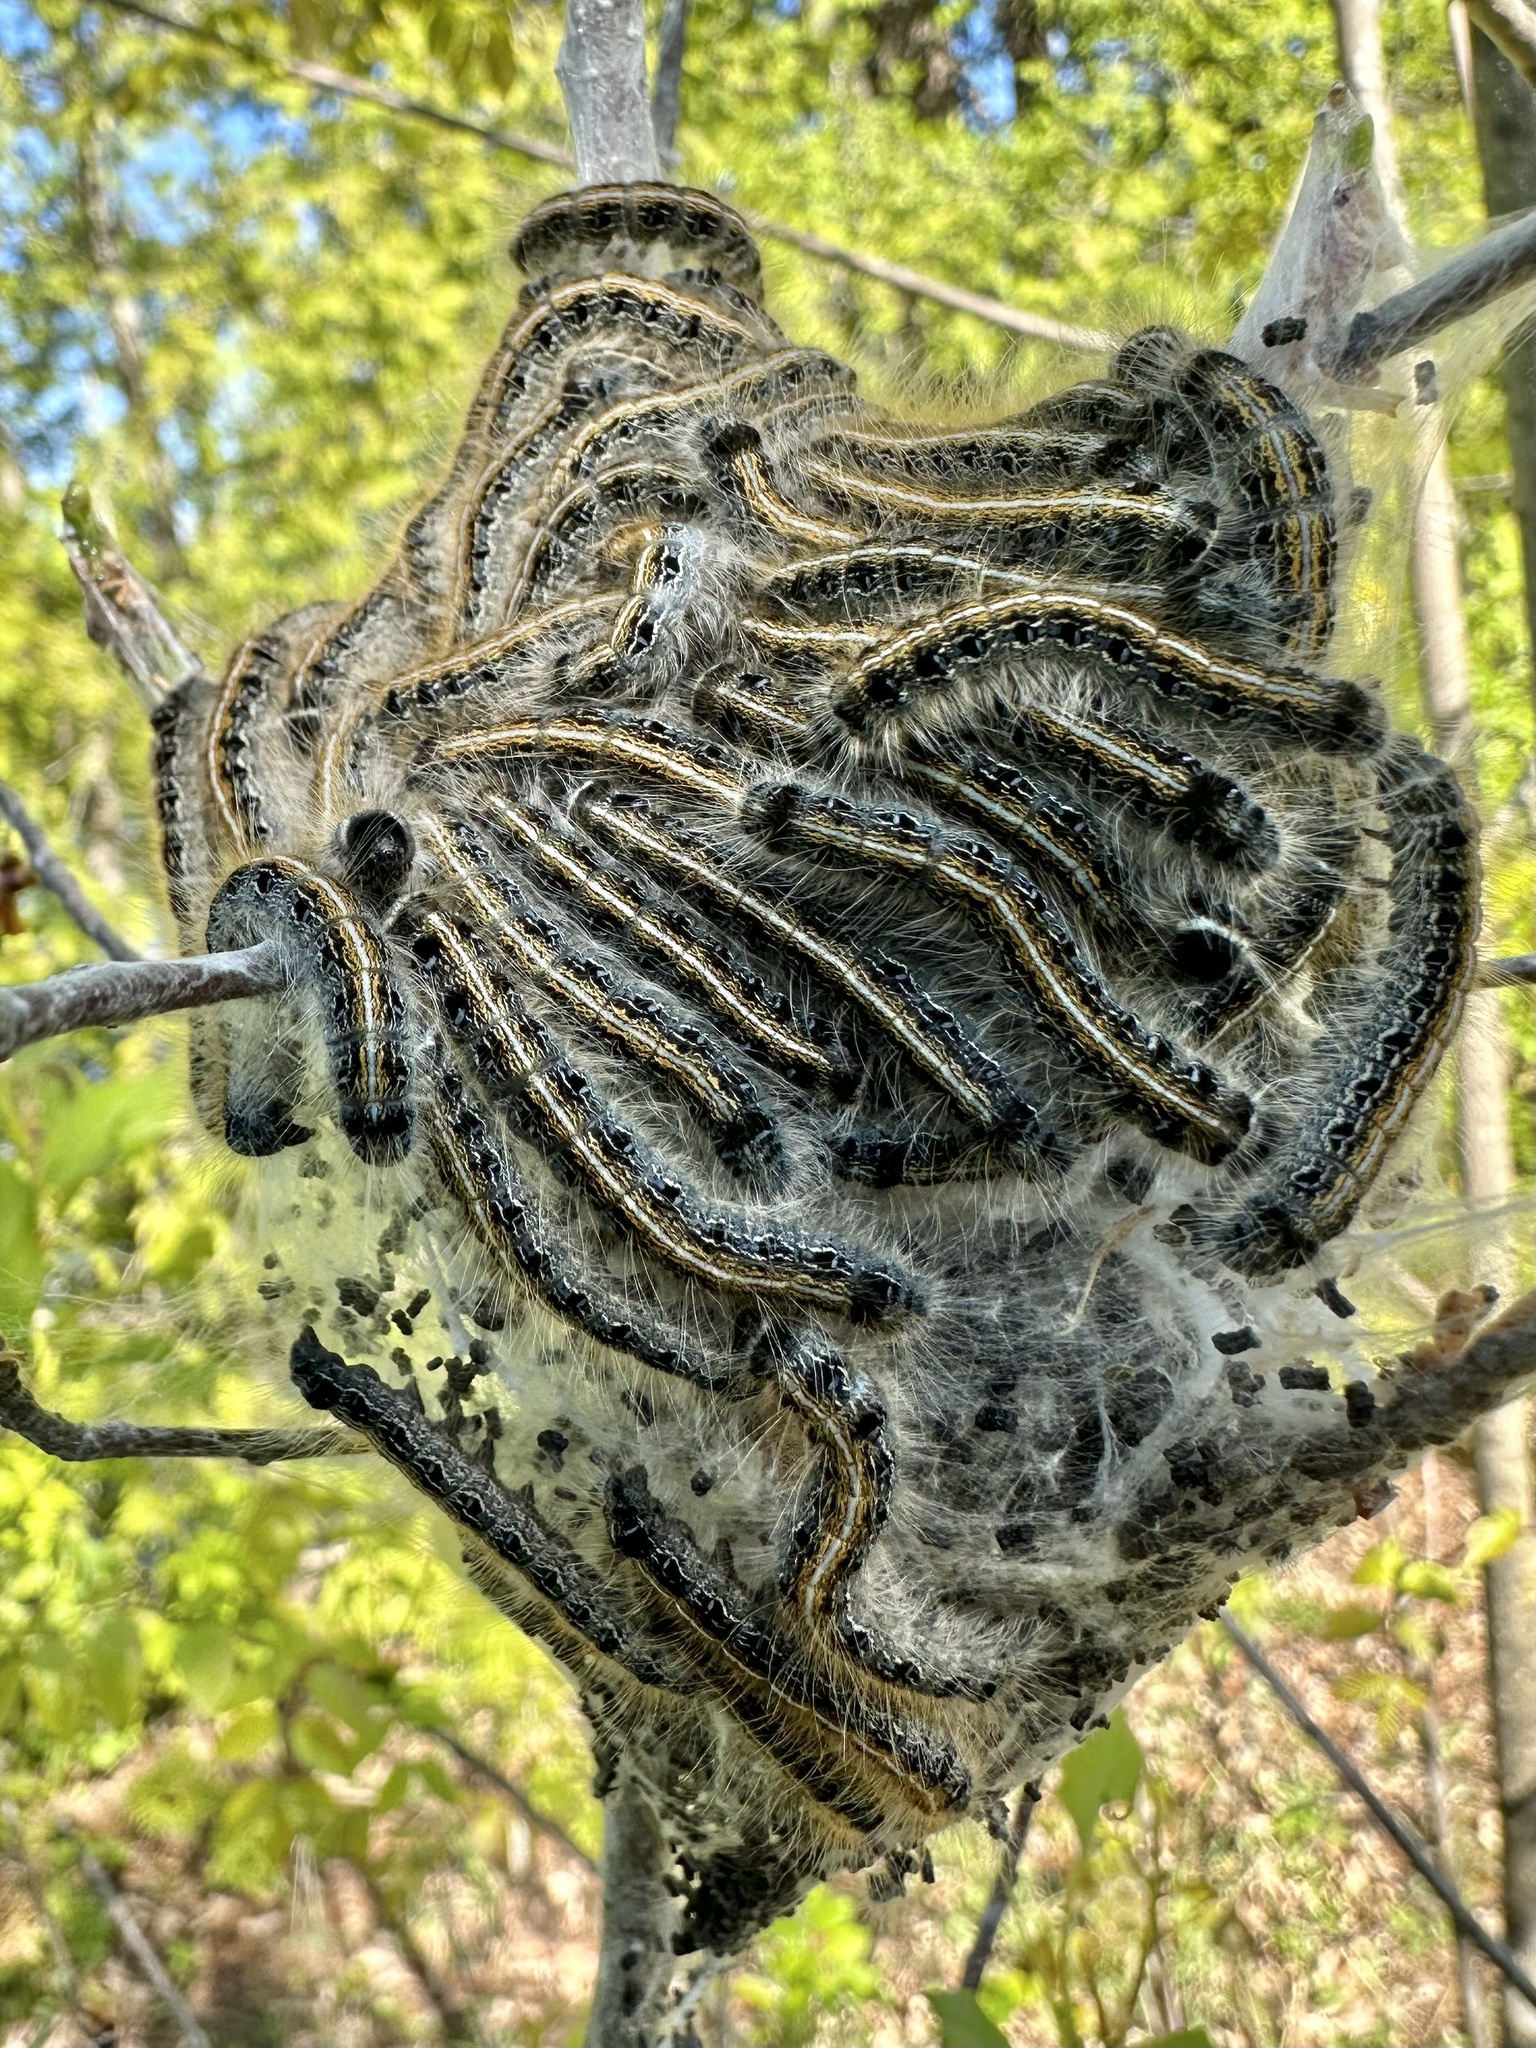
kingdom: Animalia
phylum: Arthropoda
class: Insecta
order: Lepidoptera
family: Lasiocampidae
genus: Malacosoma
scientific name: Malacosoma americana
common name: Eastern tent caterpillar moth
